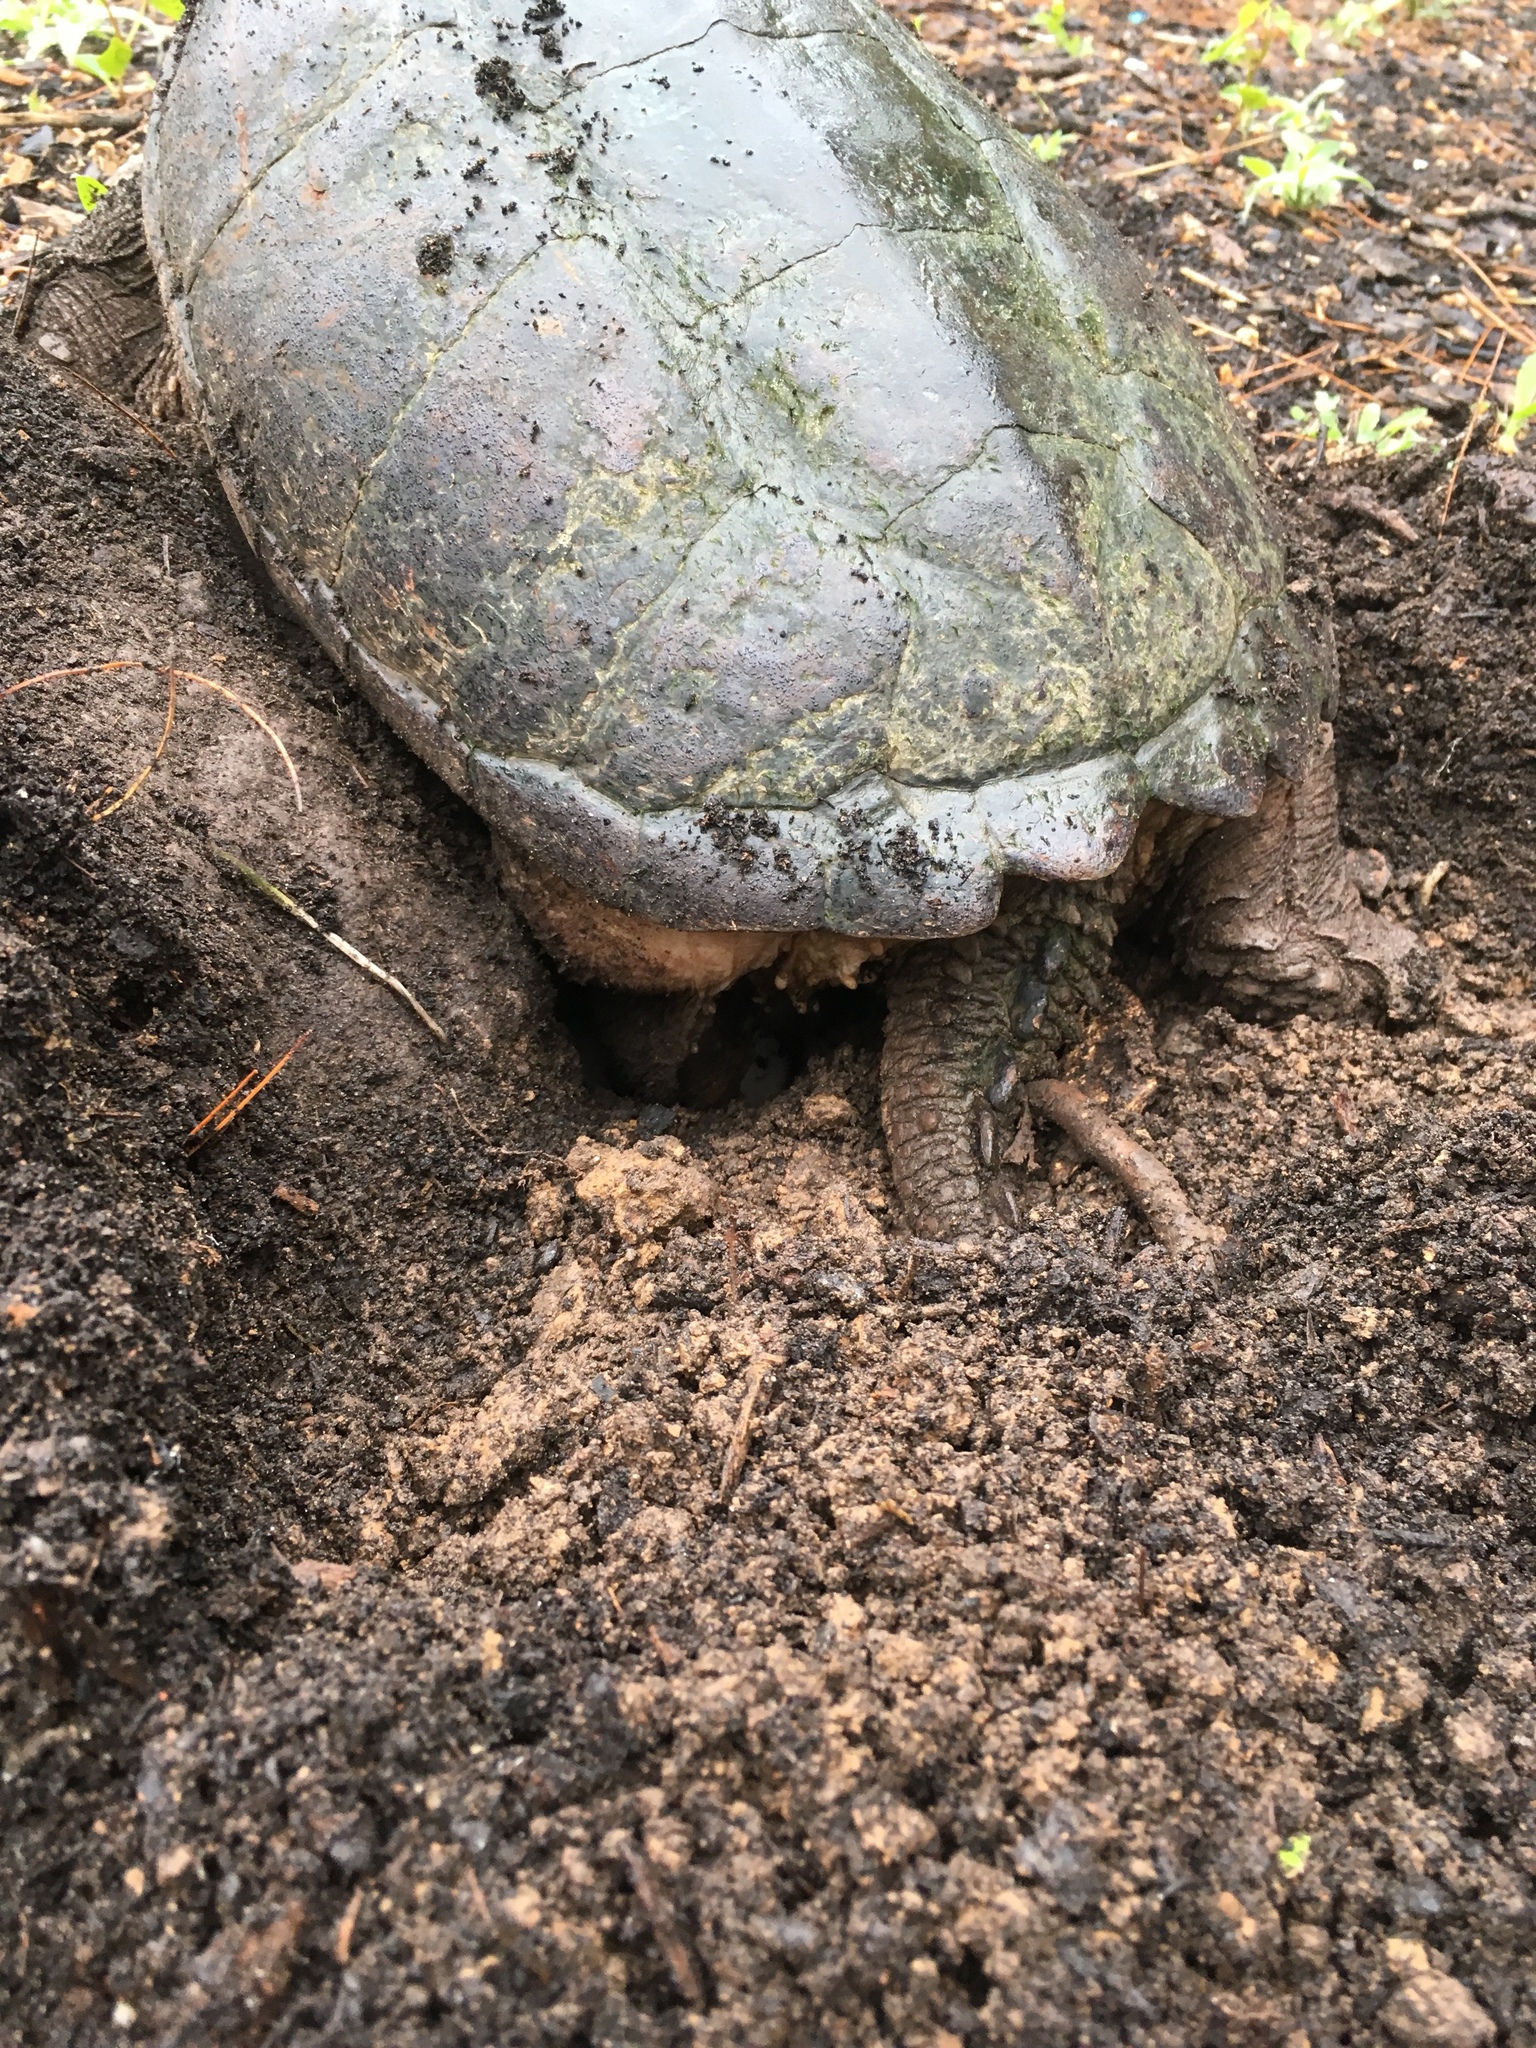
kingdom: Animalia
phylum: Chordata
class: Testudines
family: Chelydridae
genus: Chelydra
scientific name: Chelydra serpentina
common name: Common snapping turtle
